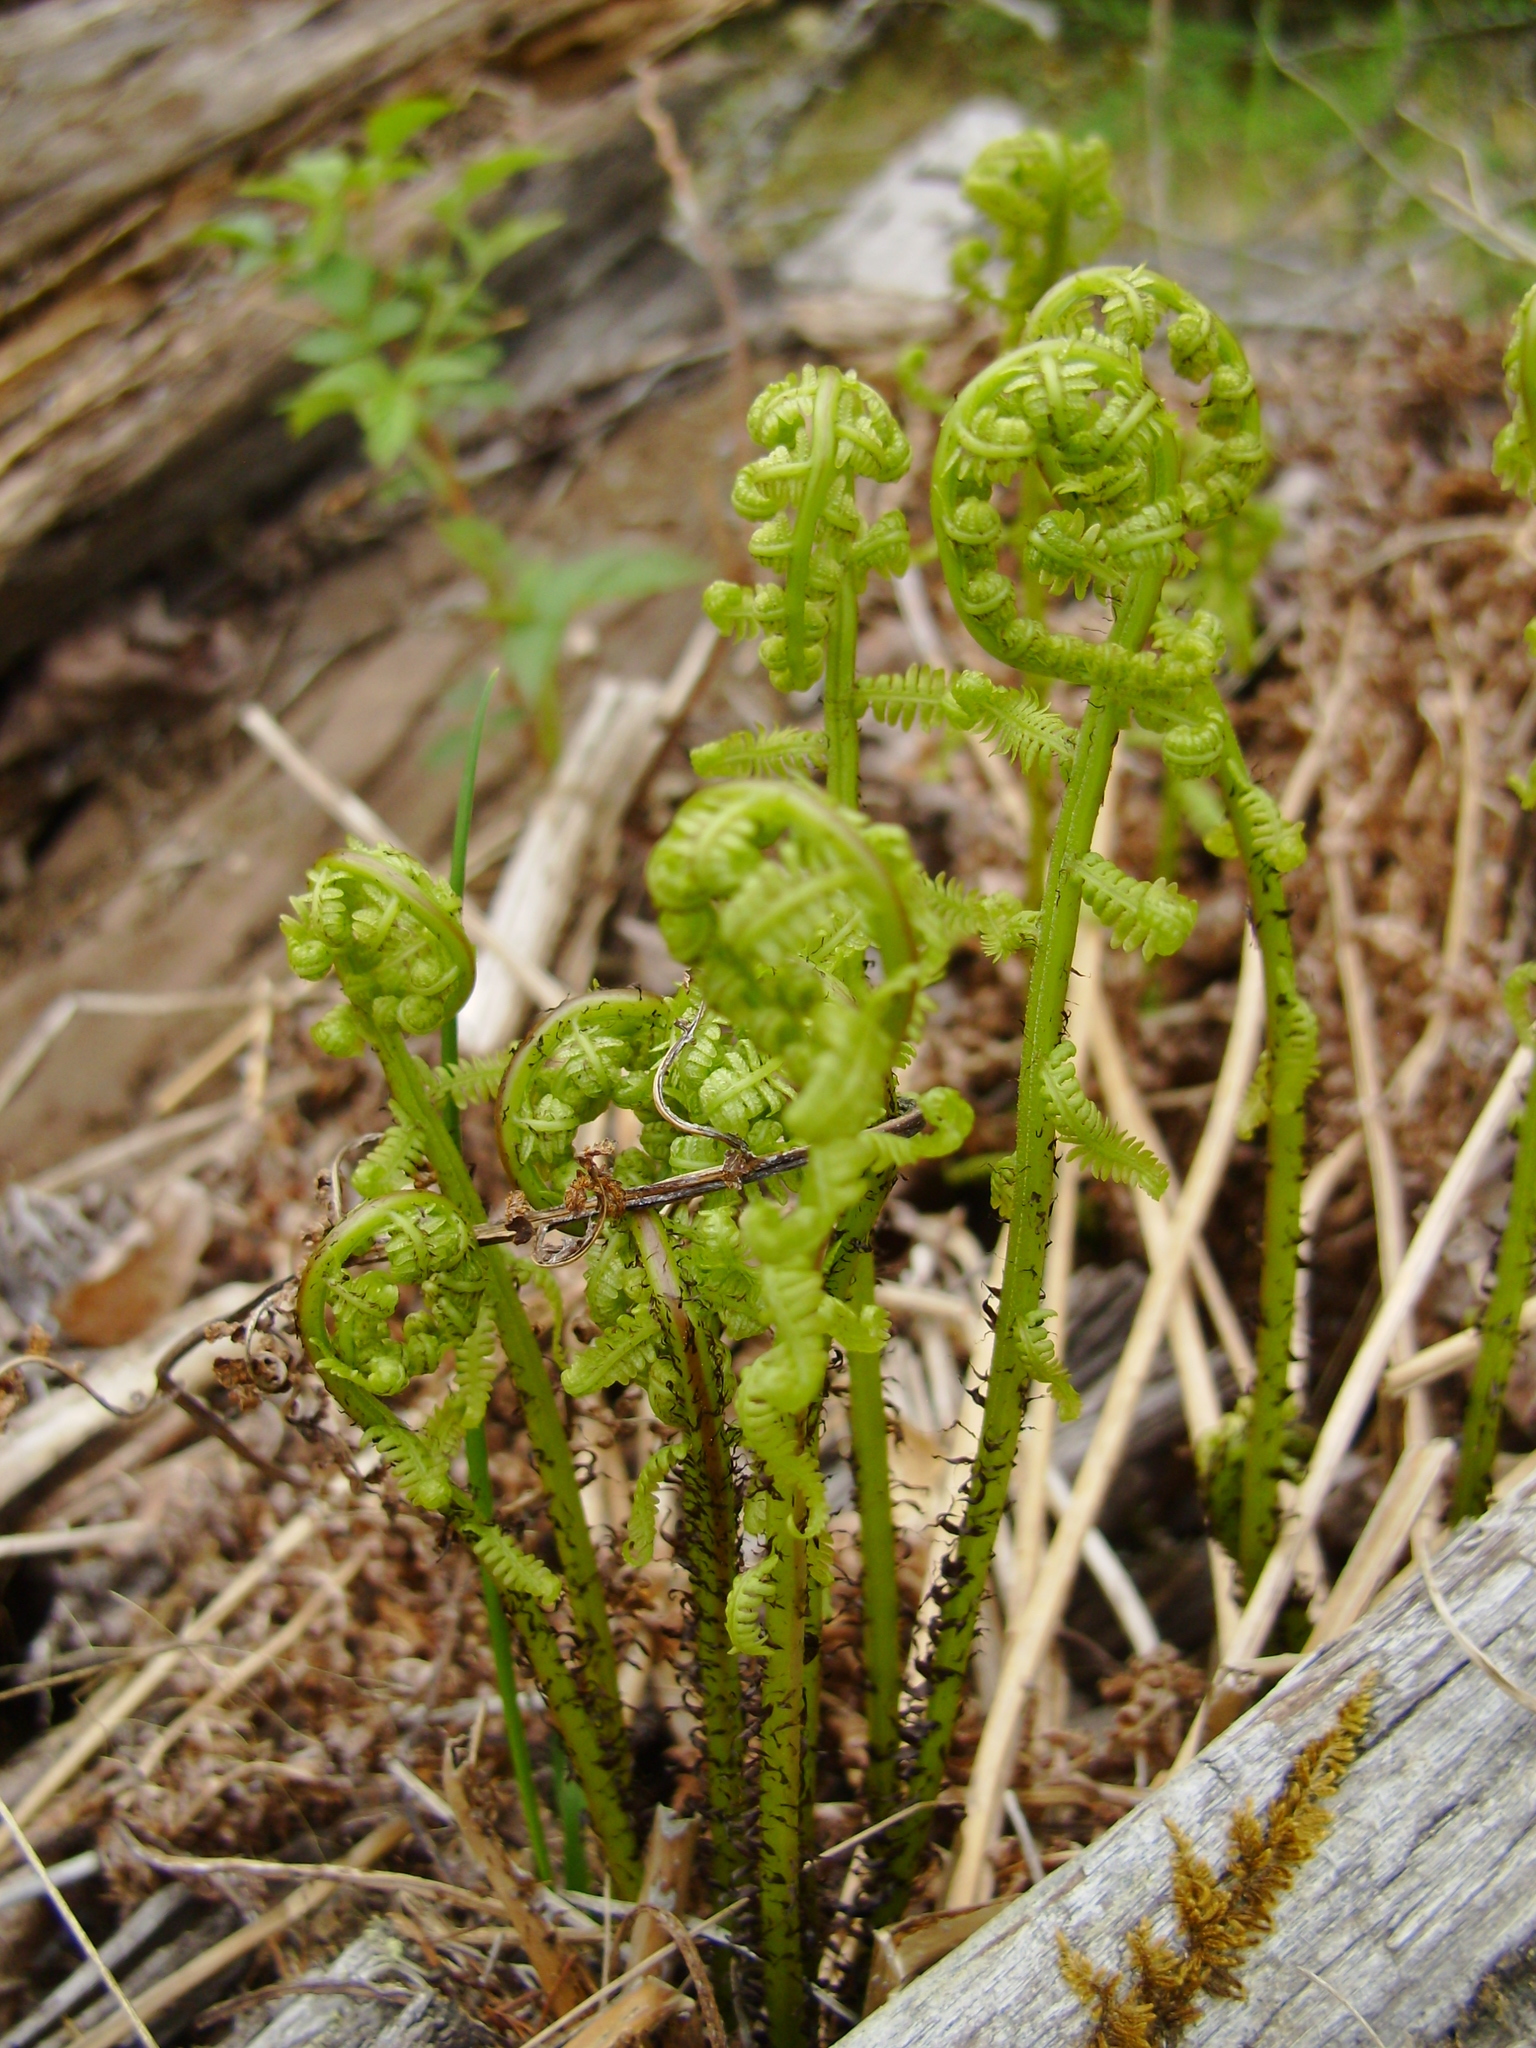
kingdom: Plantae
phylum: Tracheophyta
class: Polypodiopsida
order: Polypodiales
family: Athyriaceae
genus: Athyrium
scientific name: Athyrium angustum
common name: Northern lady fern
